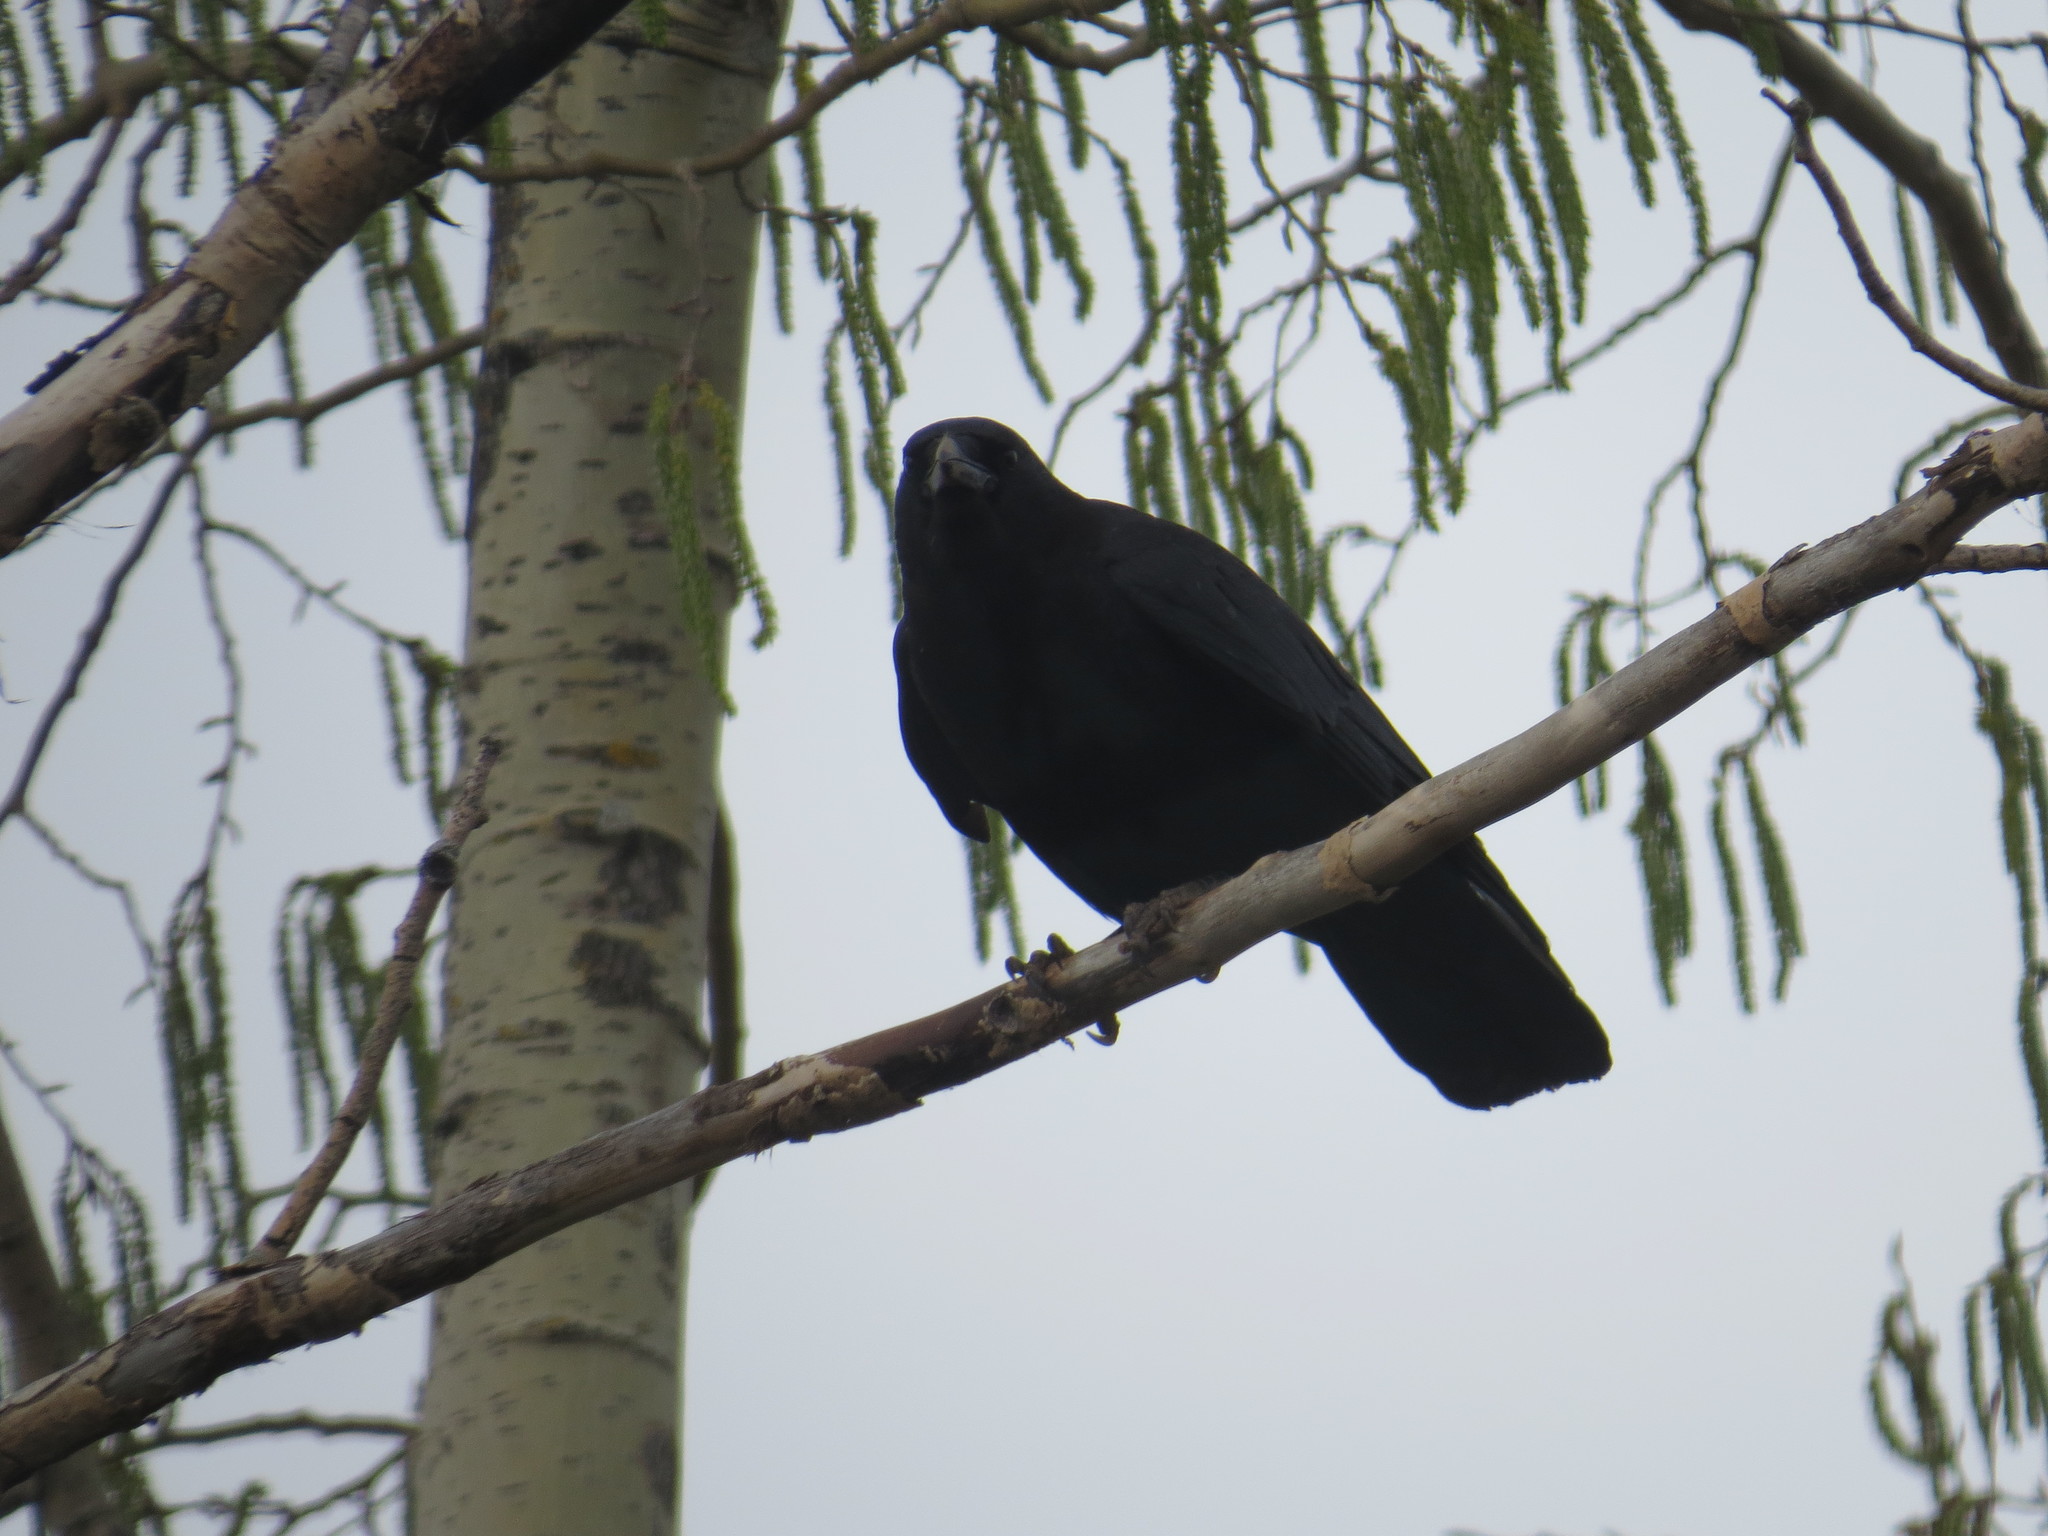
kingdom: Animalia
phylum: Chordata
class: Aves
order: Passeriformes
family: Corvidae
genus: Corvus
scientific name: Corvus brachyrhynchos
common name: American crow
